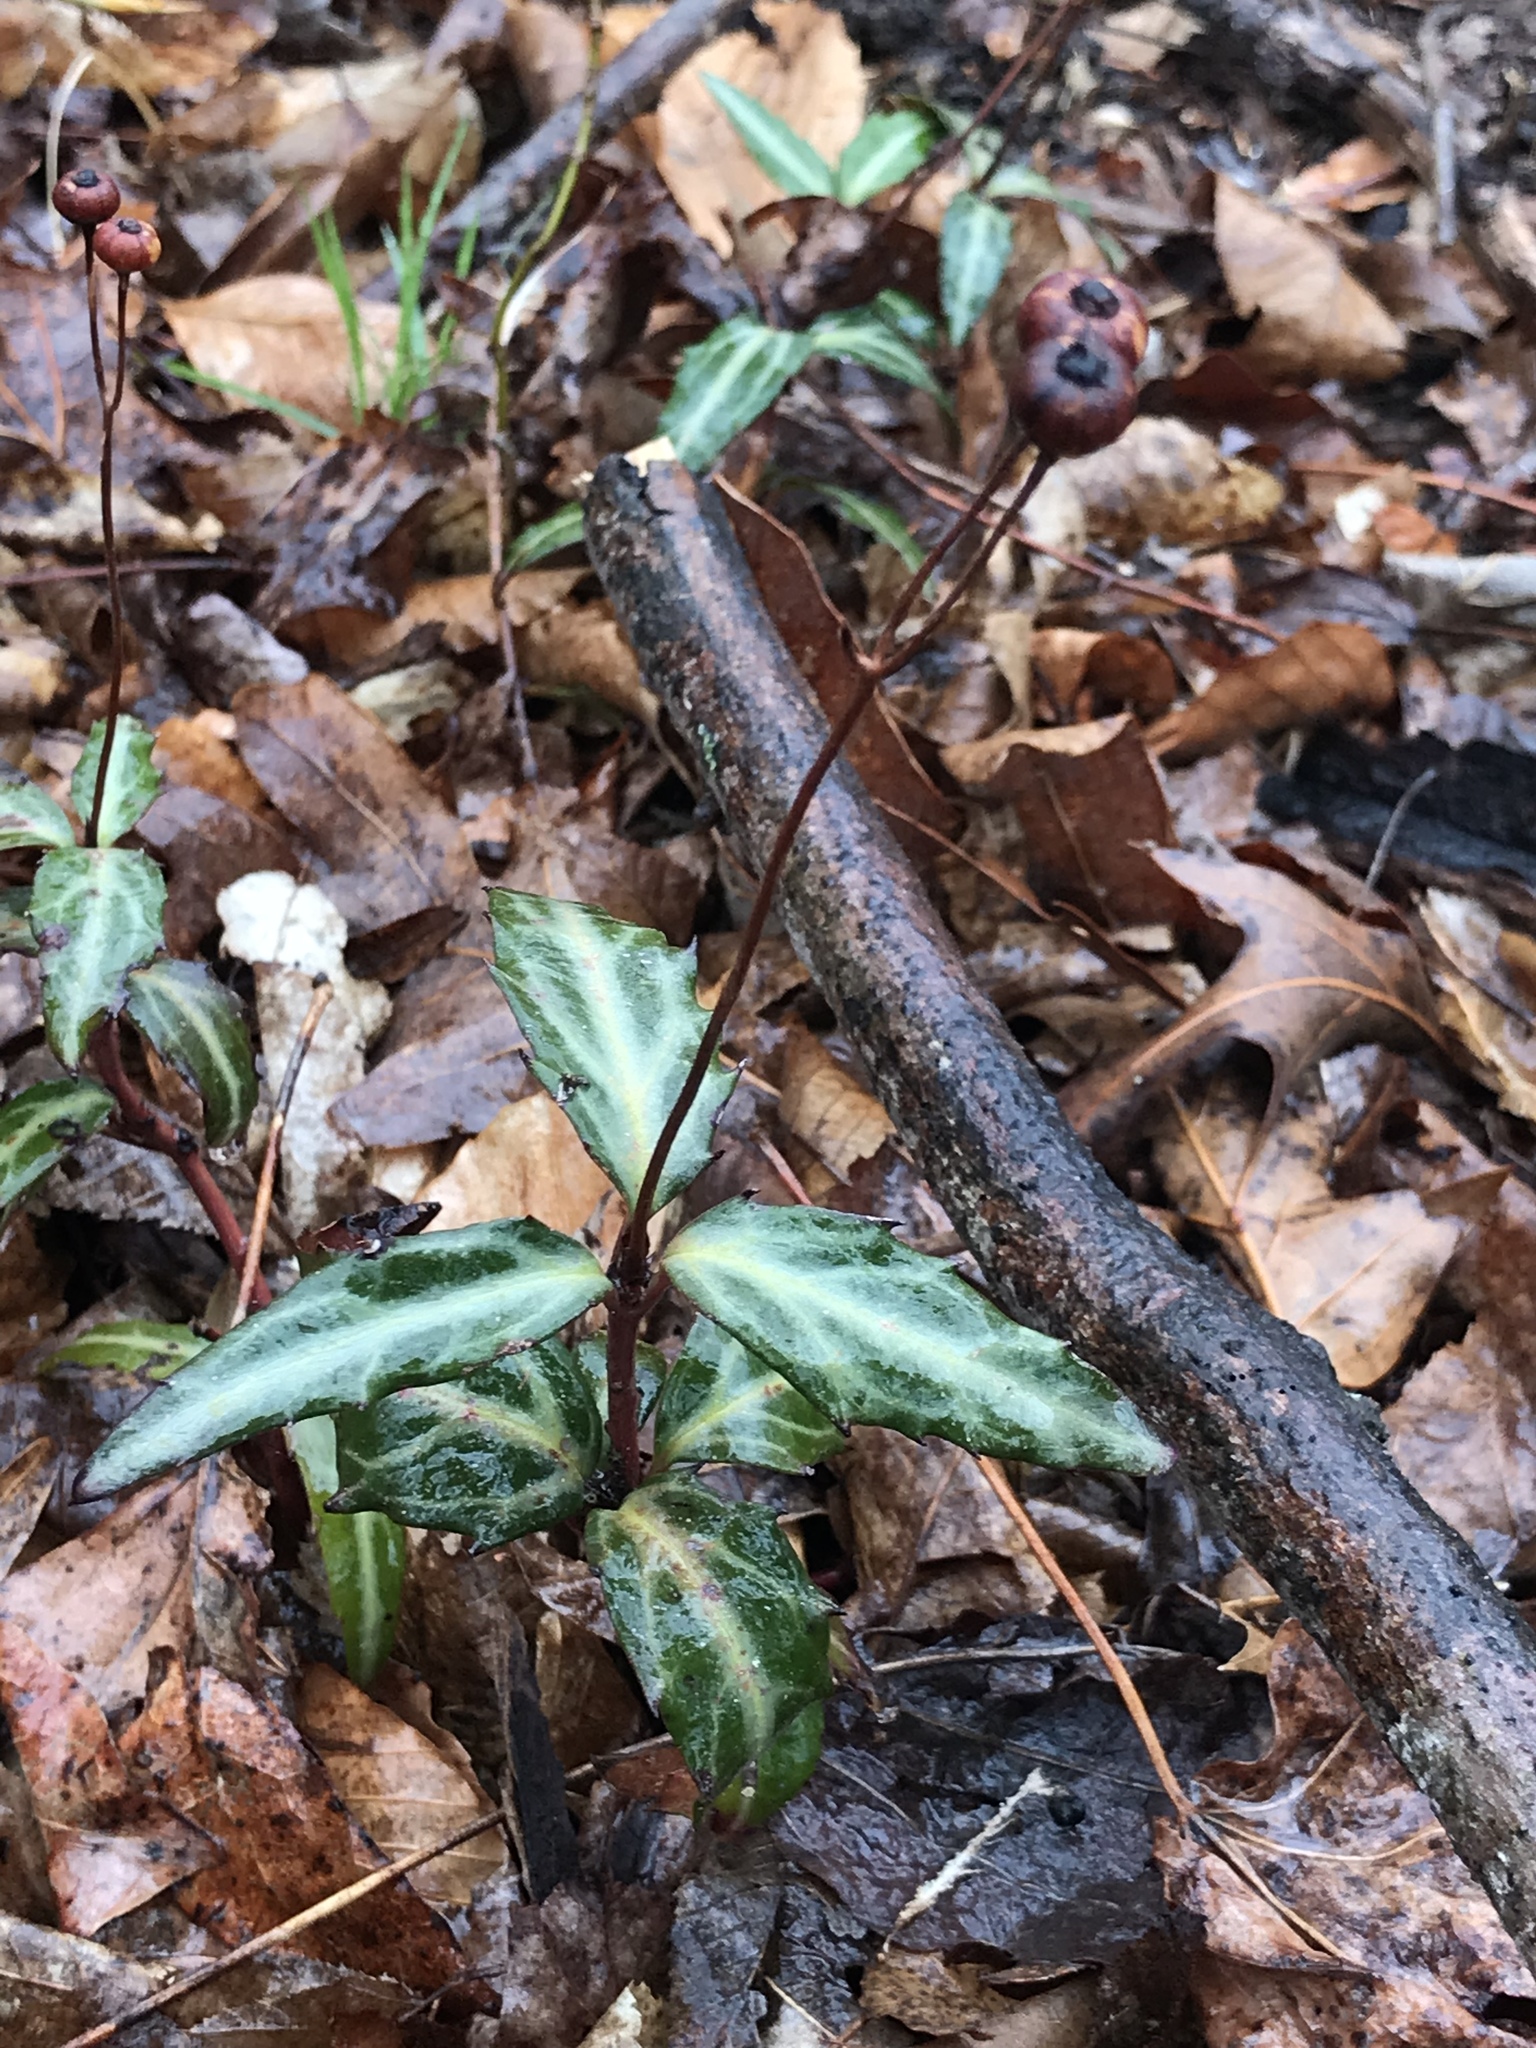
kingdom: Plantae
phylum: Tracheophyta
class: Magnoliopsida
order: Ericales
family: Ericaceae
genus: Chimaphila
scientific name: Chimaphila maculata
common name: Spotted pipsissewa
